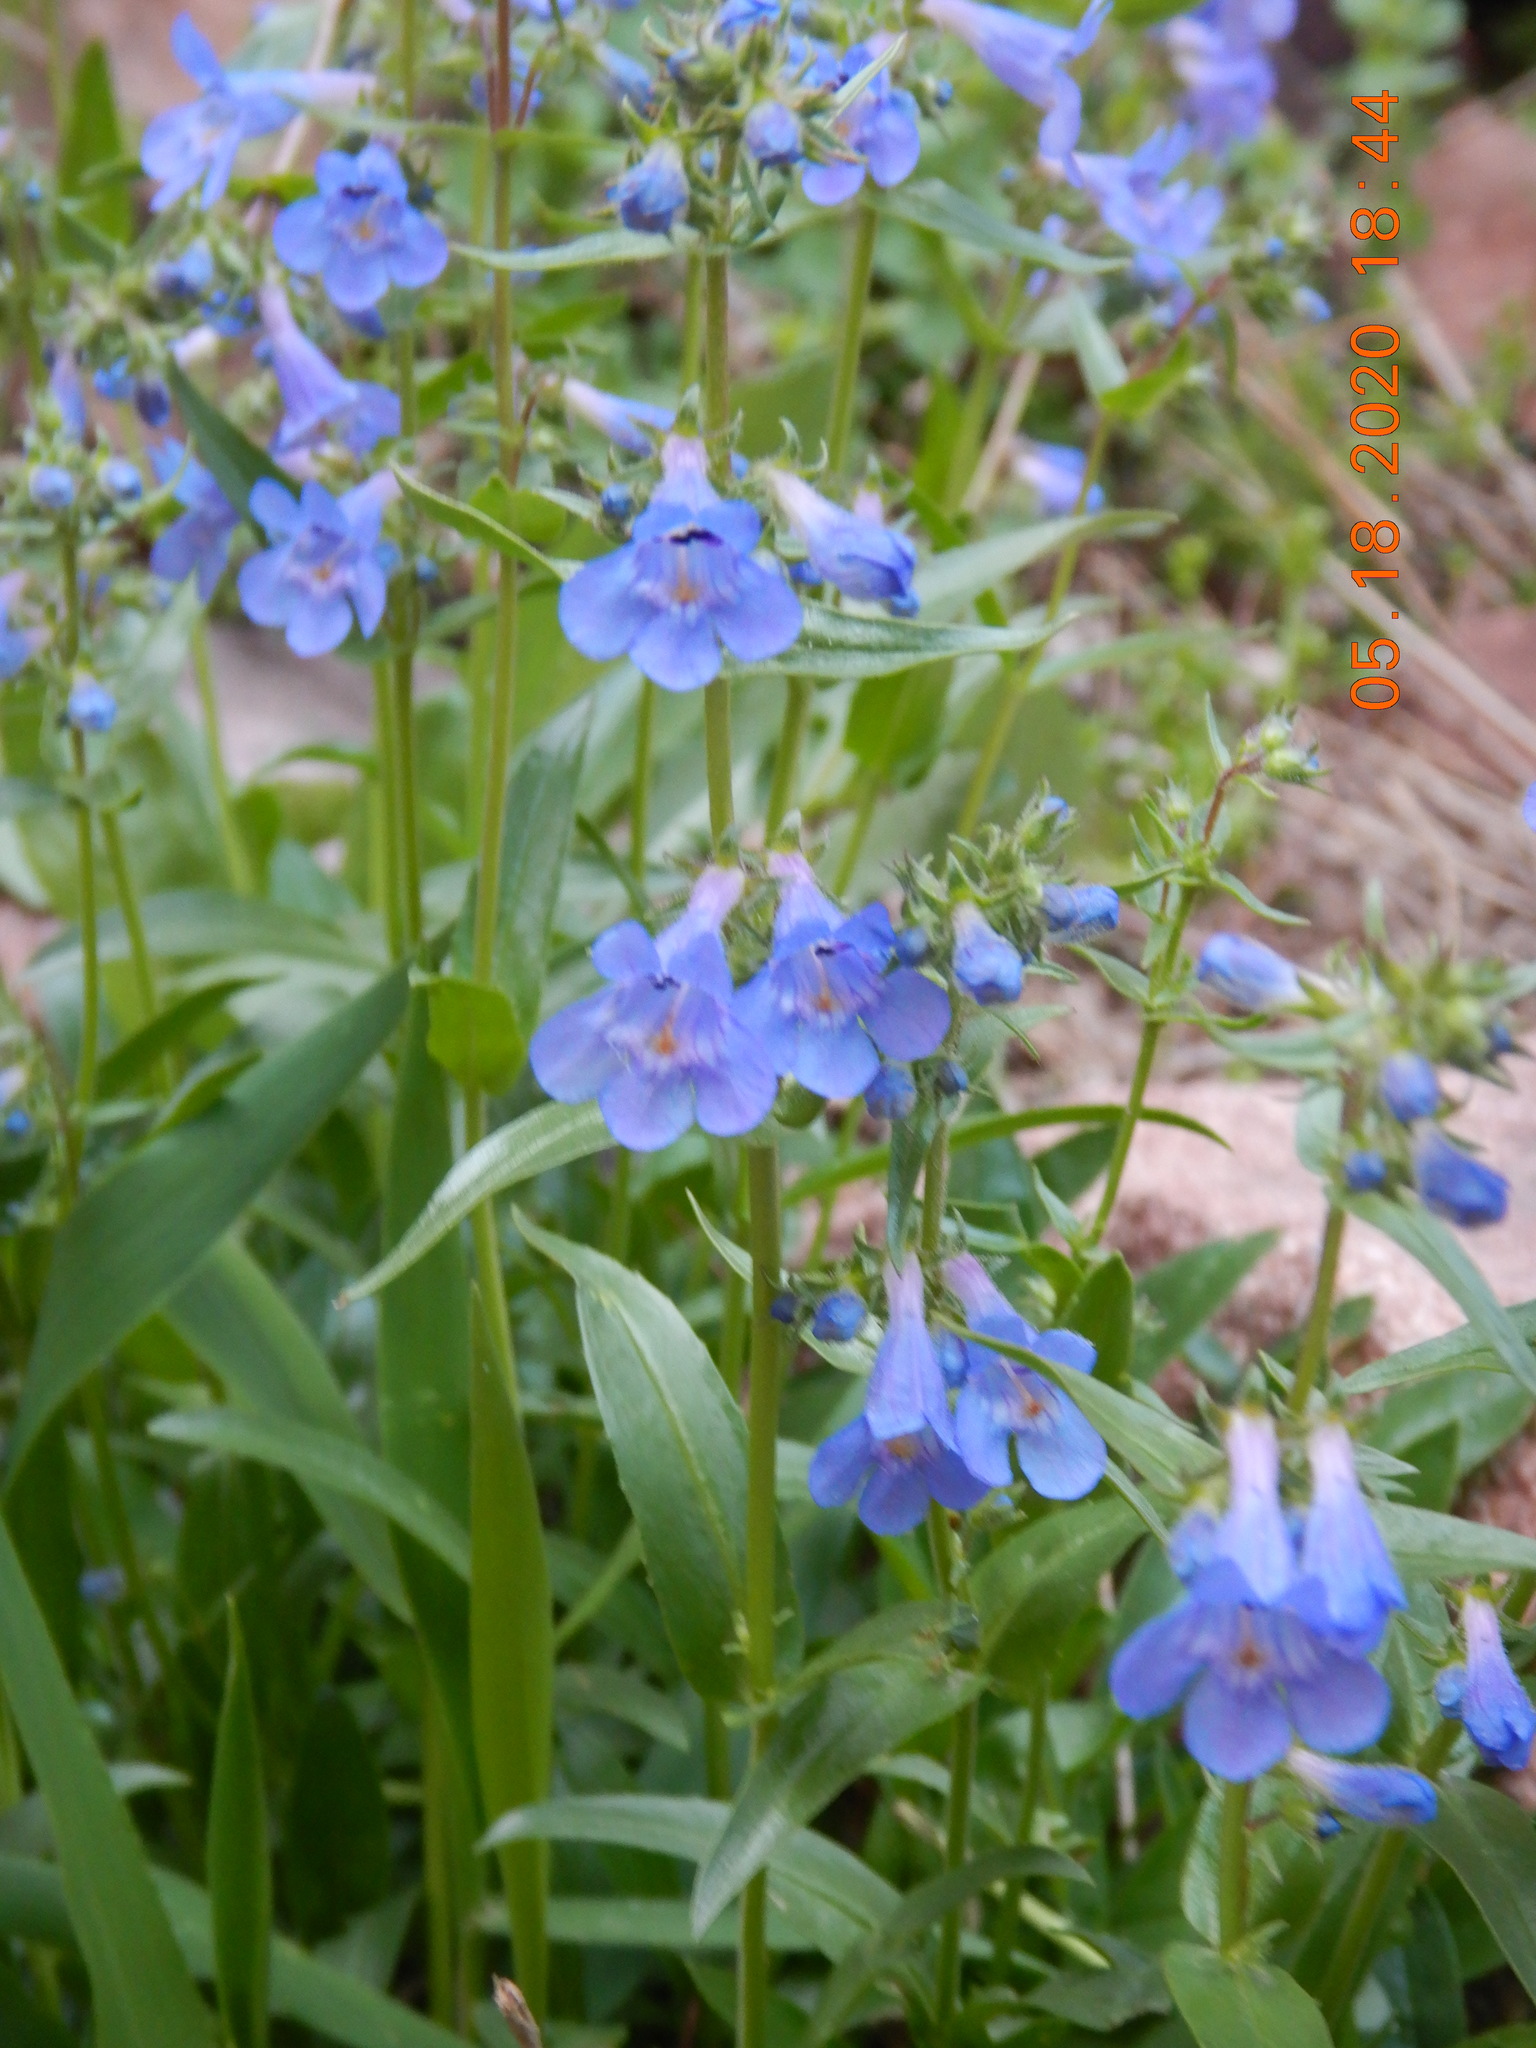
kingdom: Plantae
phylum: Tracheophyta
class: Magnoliopsida
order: Lamiales
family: Plantaginaceae
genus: Penstemon
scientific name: Penstemon virens
